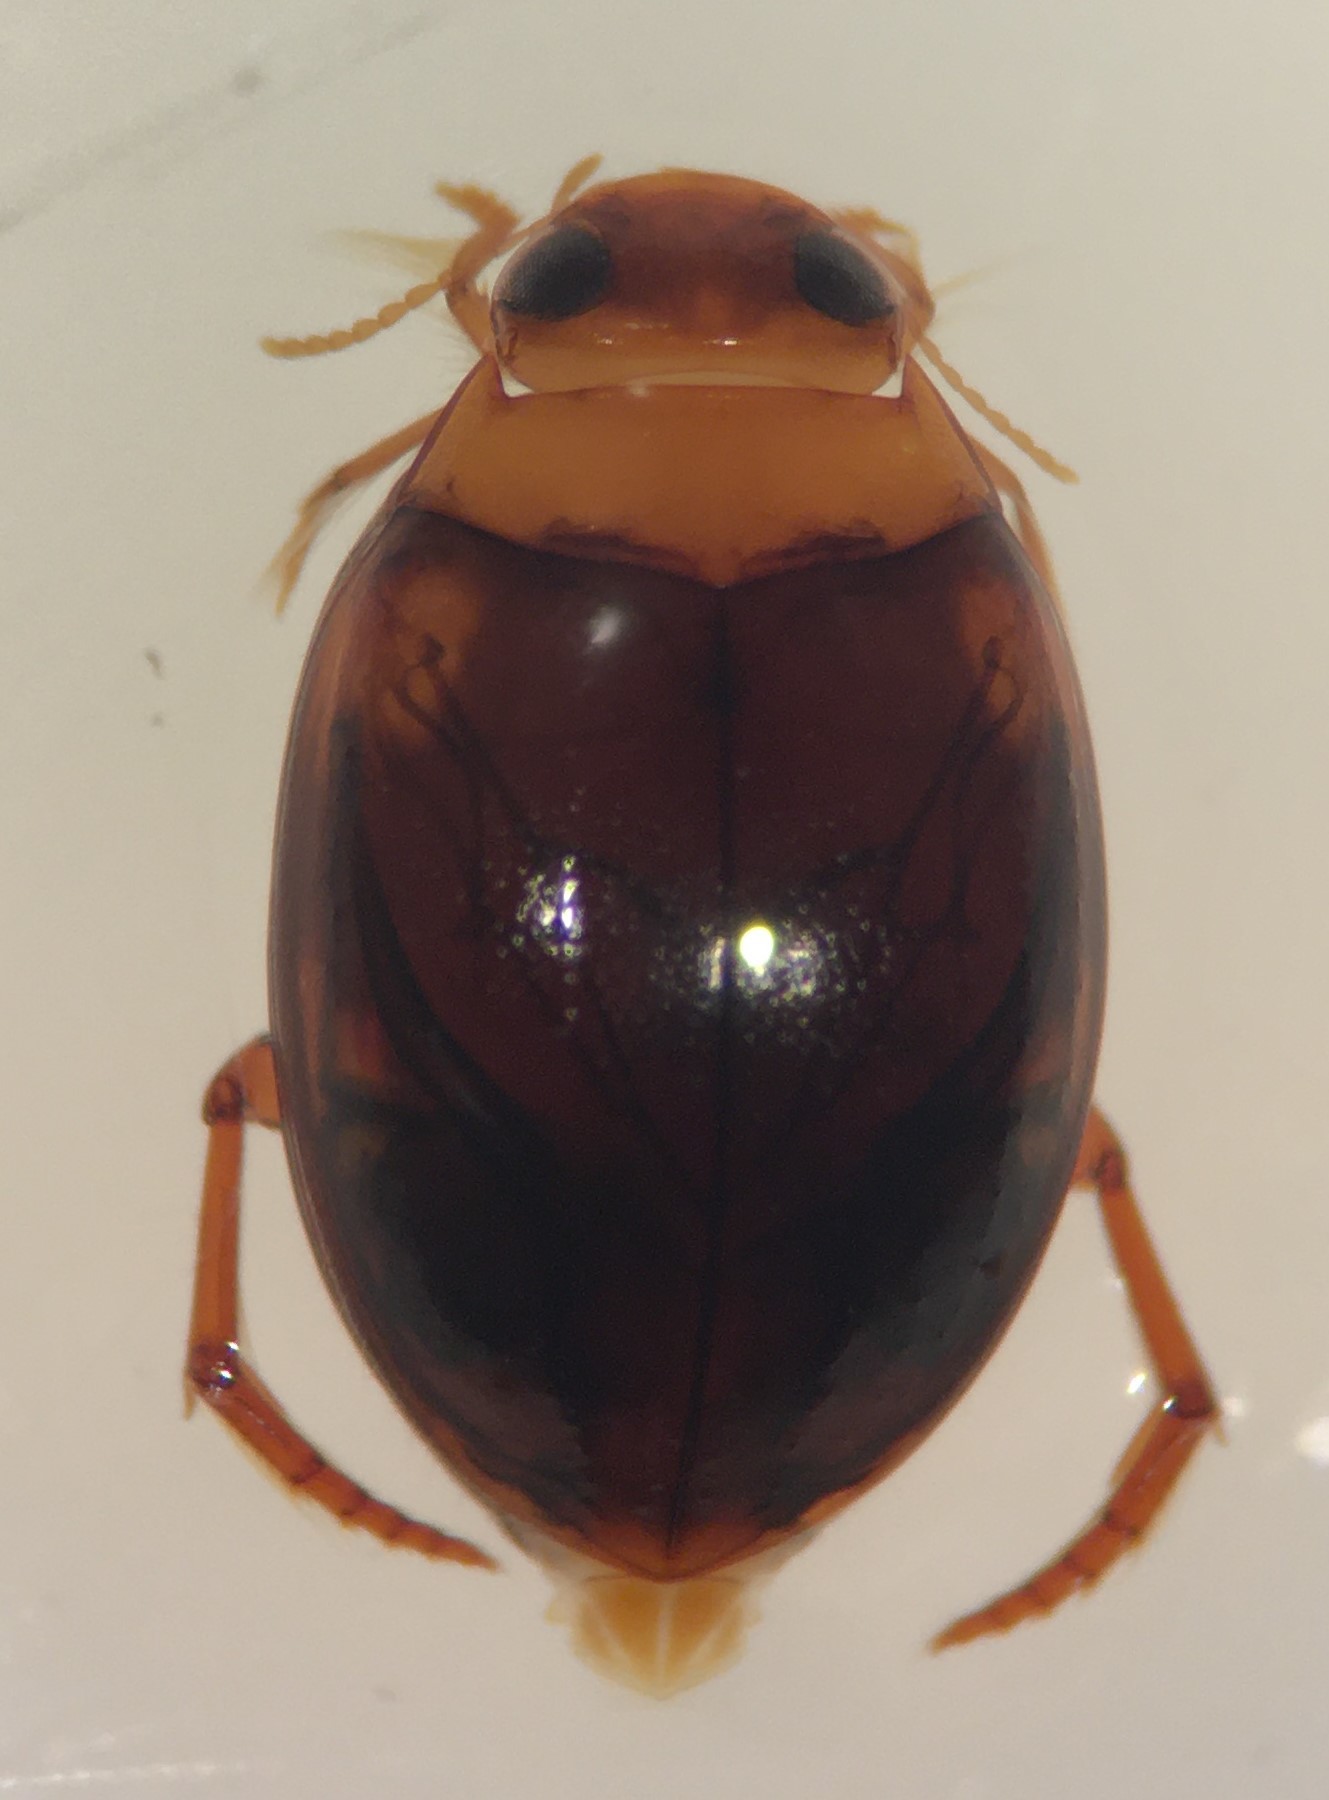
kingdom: Animalia
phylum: Arthropoda
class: Insecta
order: Coleoptera
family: Dytiscidae
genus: Pachydrus
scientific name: Pachydrus princeps
